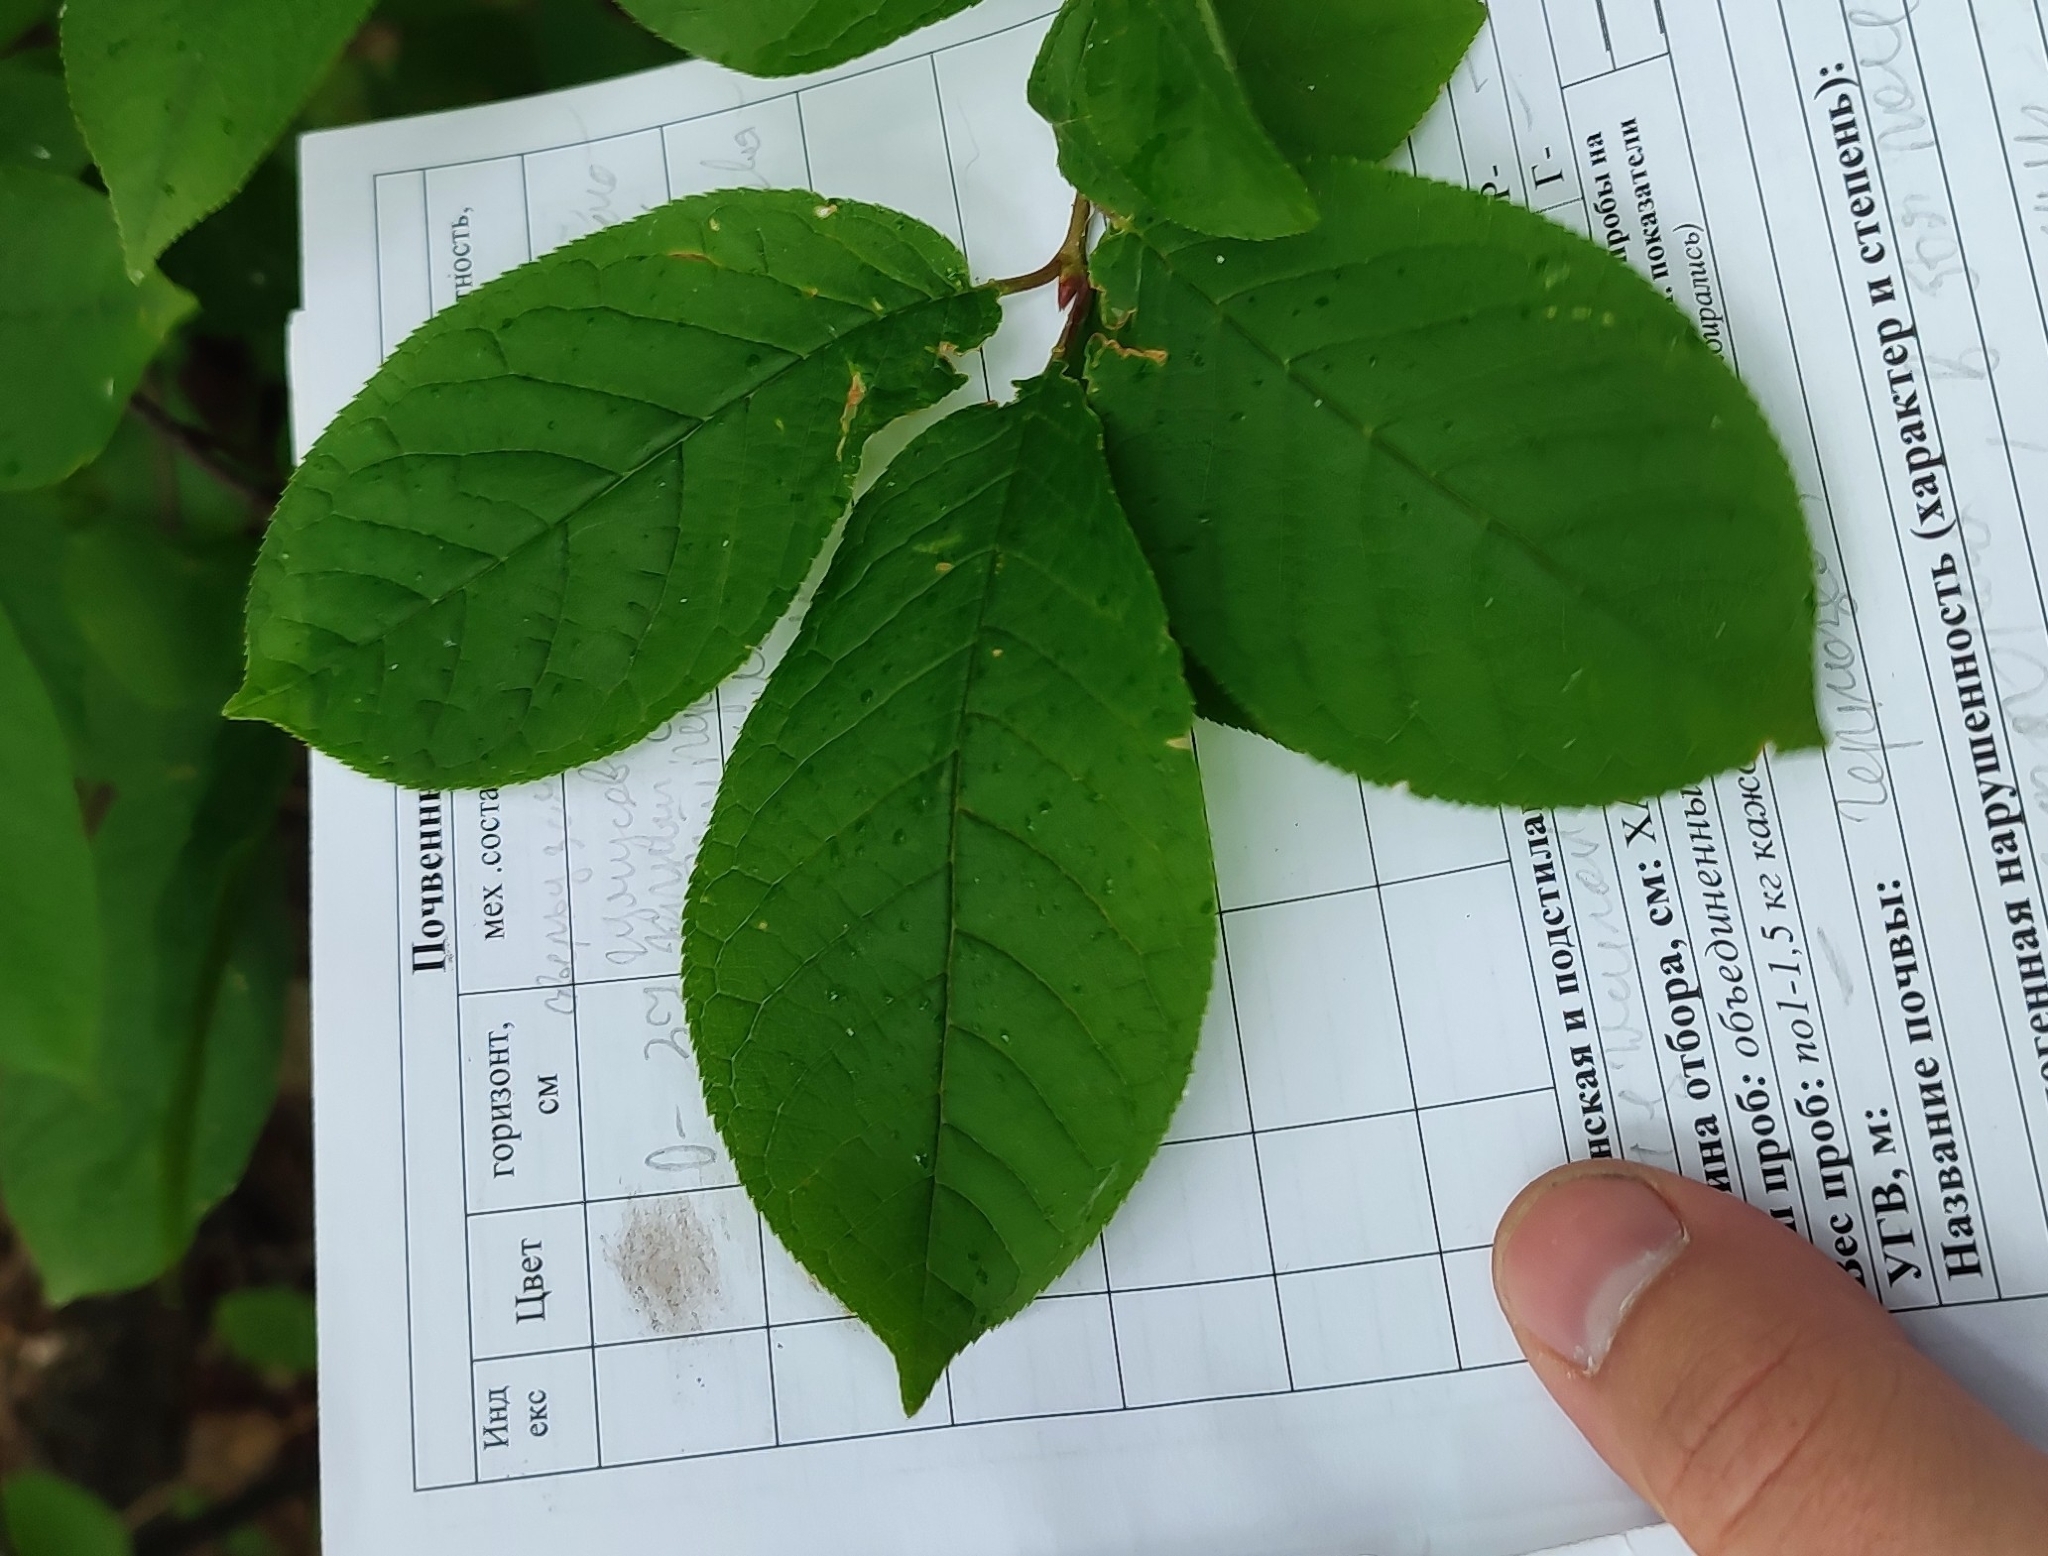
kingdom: Plantae
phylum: Tracheophyta
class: Magnoliopsida
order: Rosales
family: Rosaceae
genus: Prunus
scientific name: Prunus padus
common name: Bird cherry
